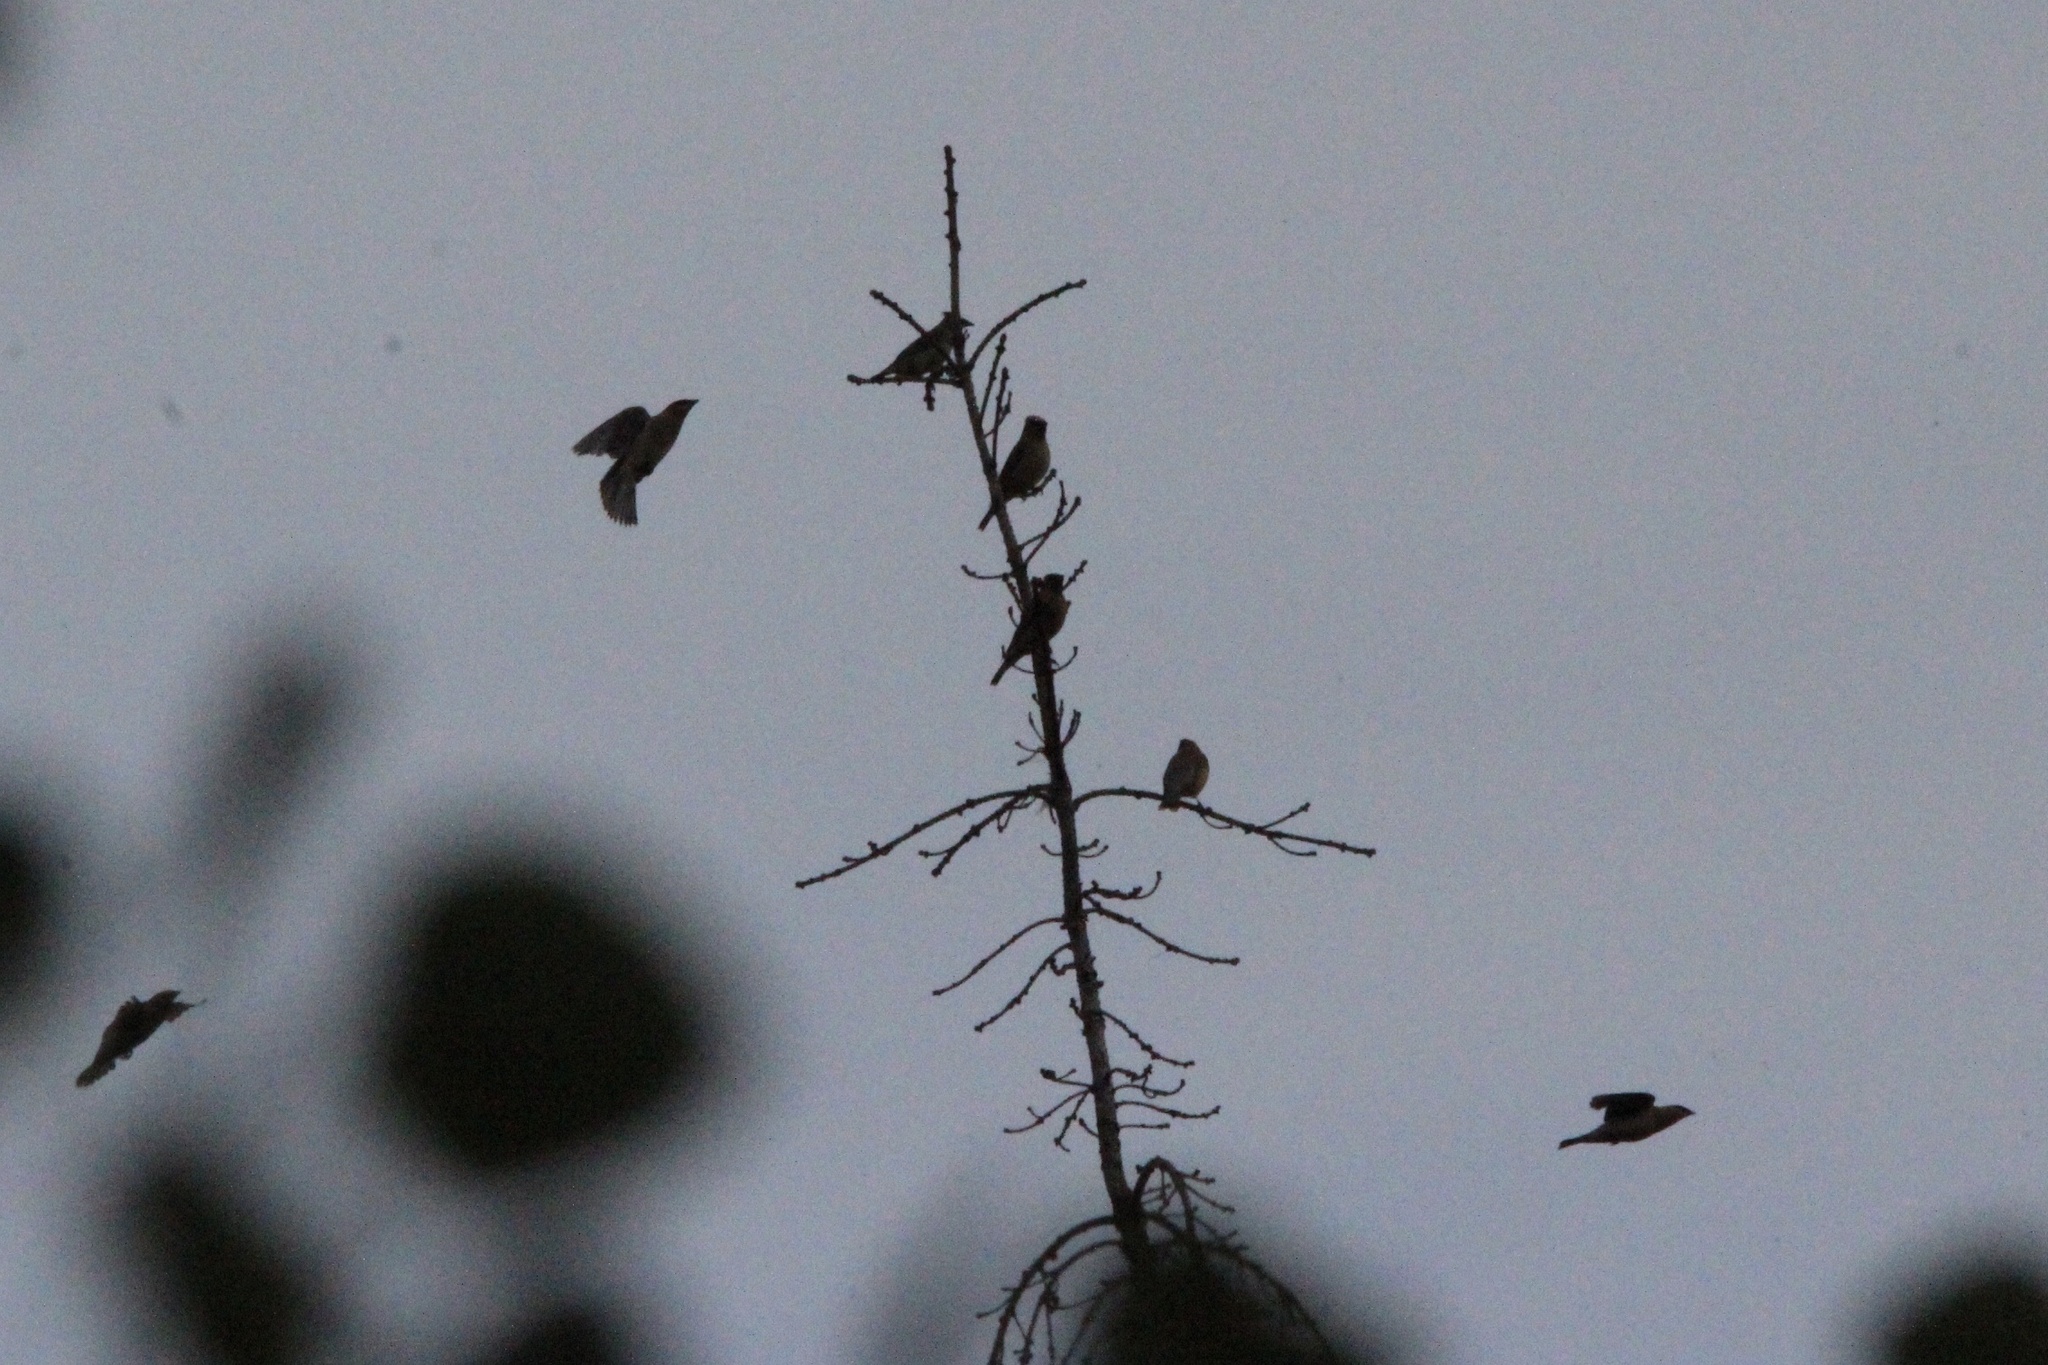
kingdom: Animalia
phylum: Chordata
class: Aves
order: Passeriformes
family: Bombycillidae
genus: Bombycilla
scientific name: Bombycilla cedrorum
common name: Cedar waxwing
